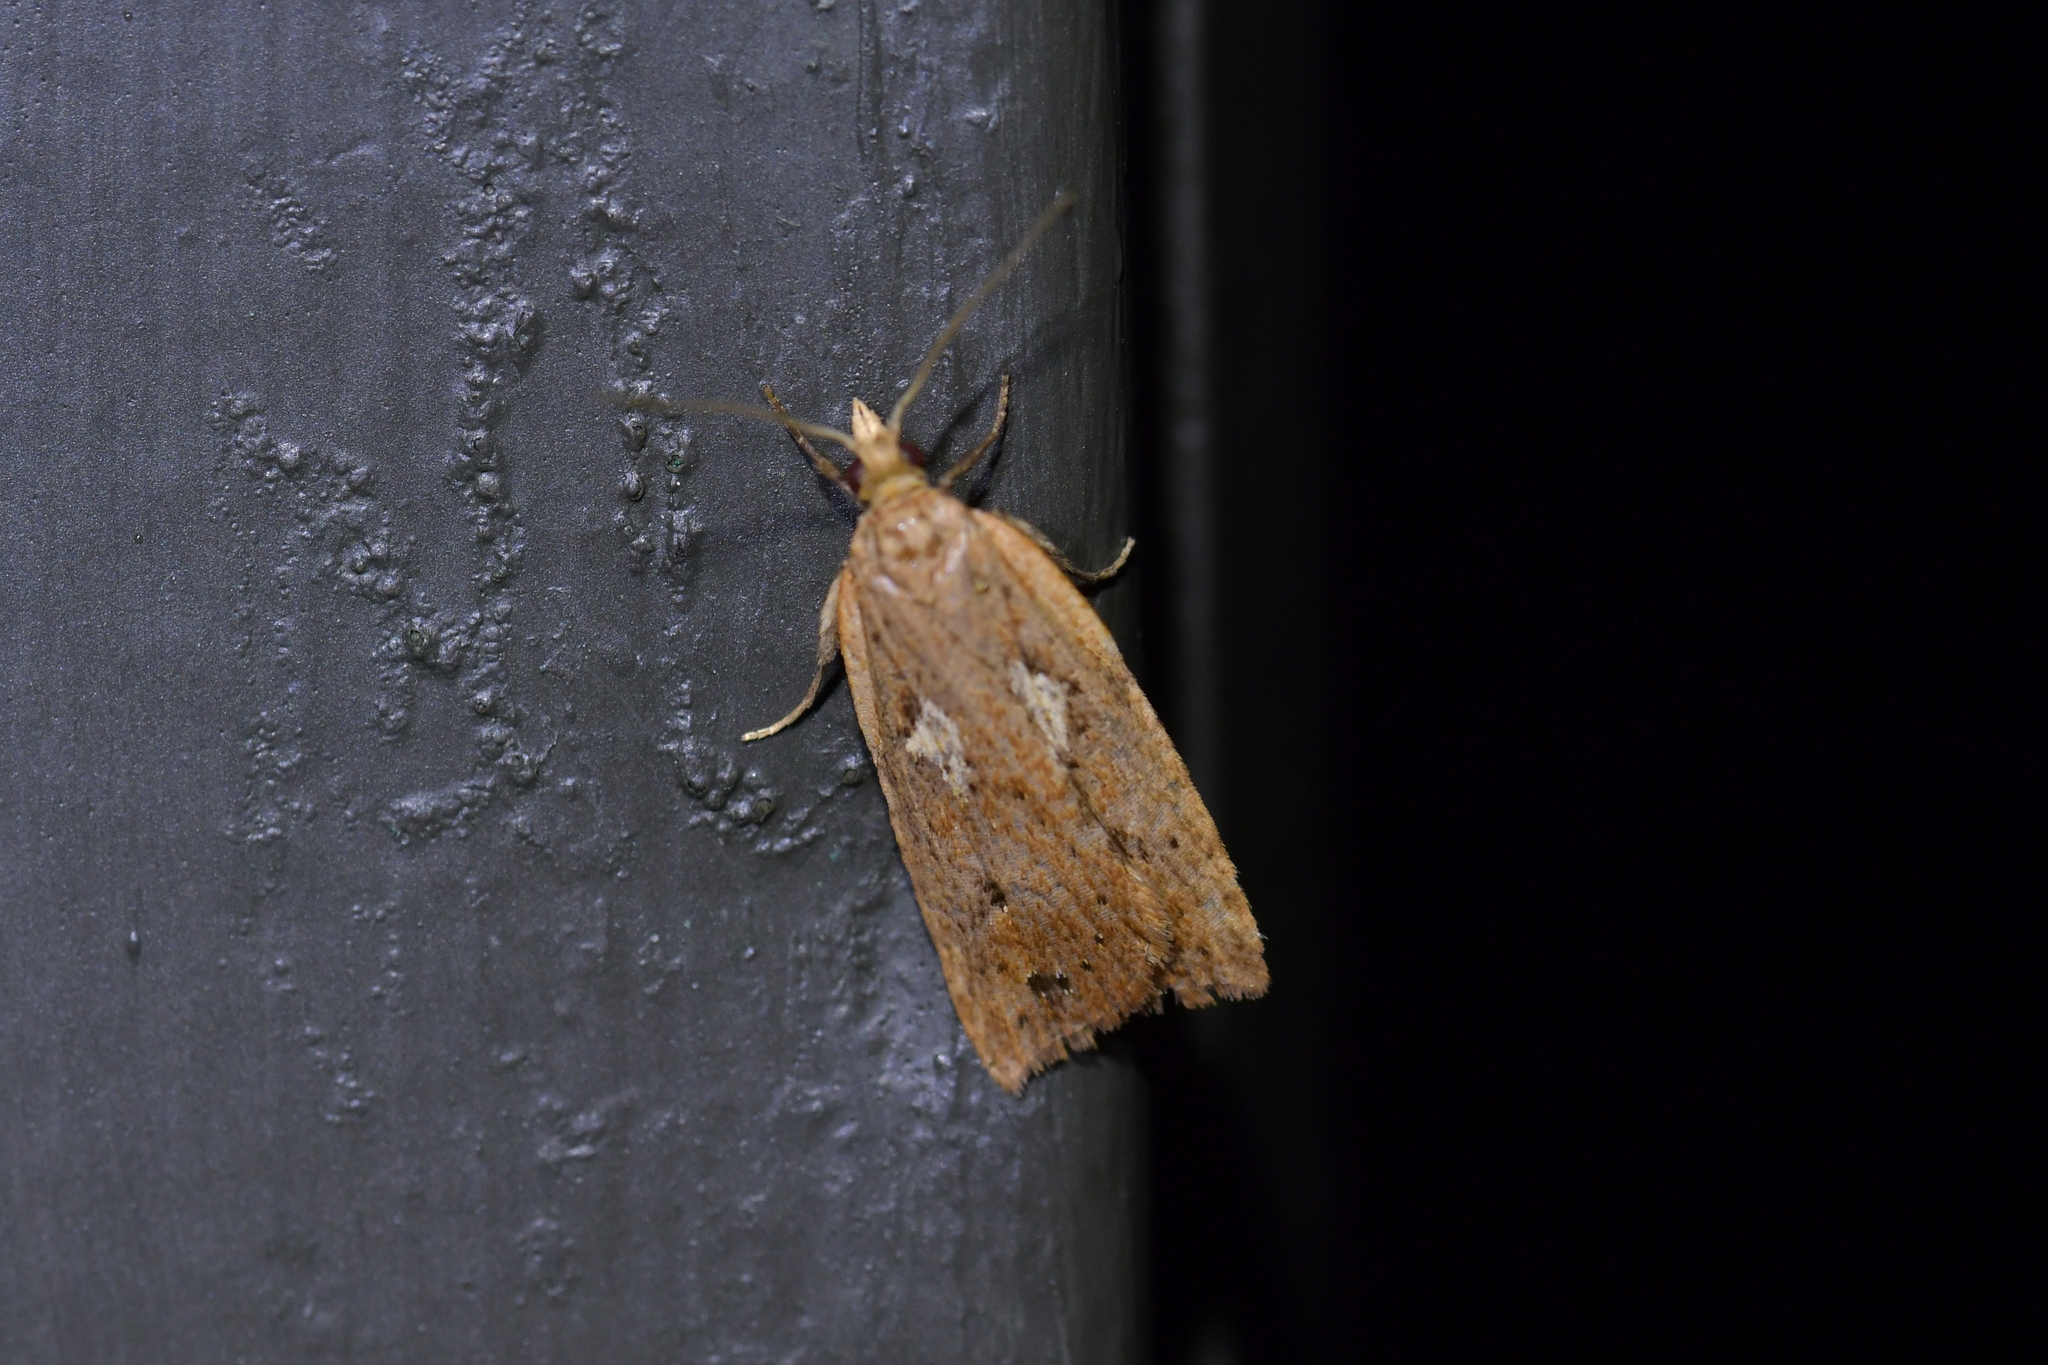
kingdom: Animalia
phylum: Arthropoda
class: Insecta
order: Lepidoptera
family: Tortricidae
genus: Planotortrix
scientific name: Planotortrix notophaea
